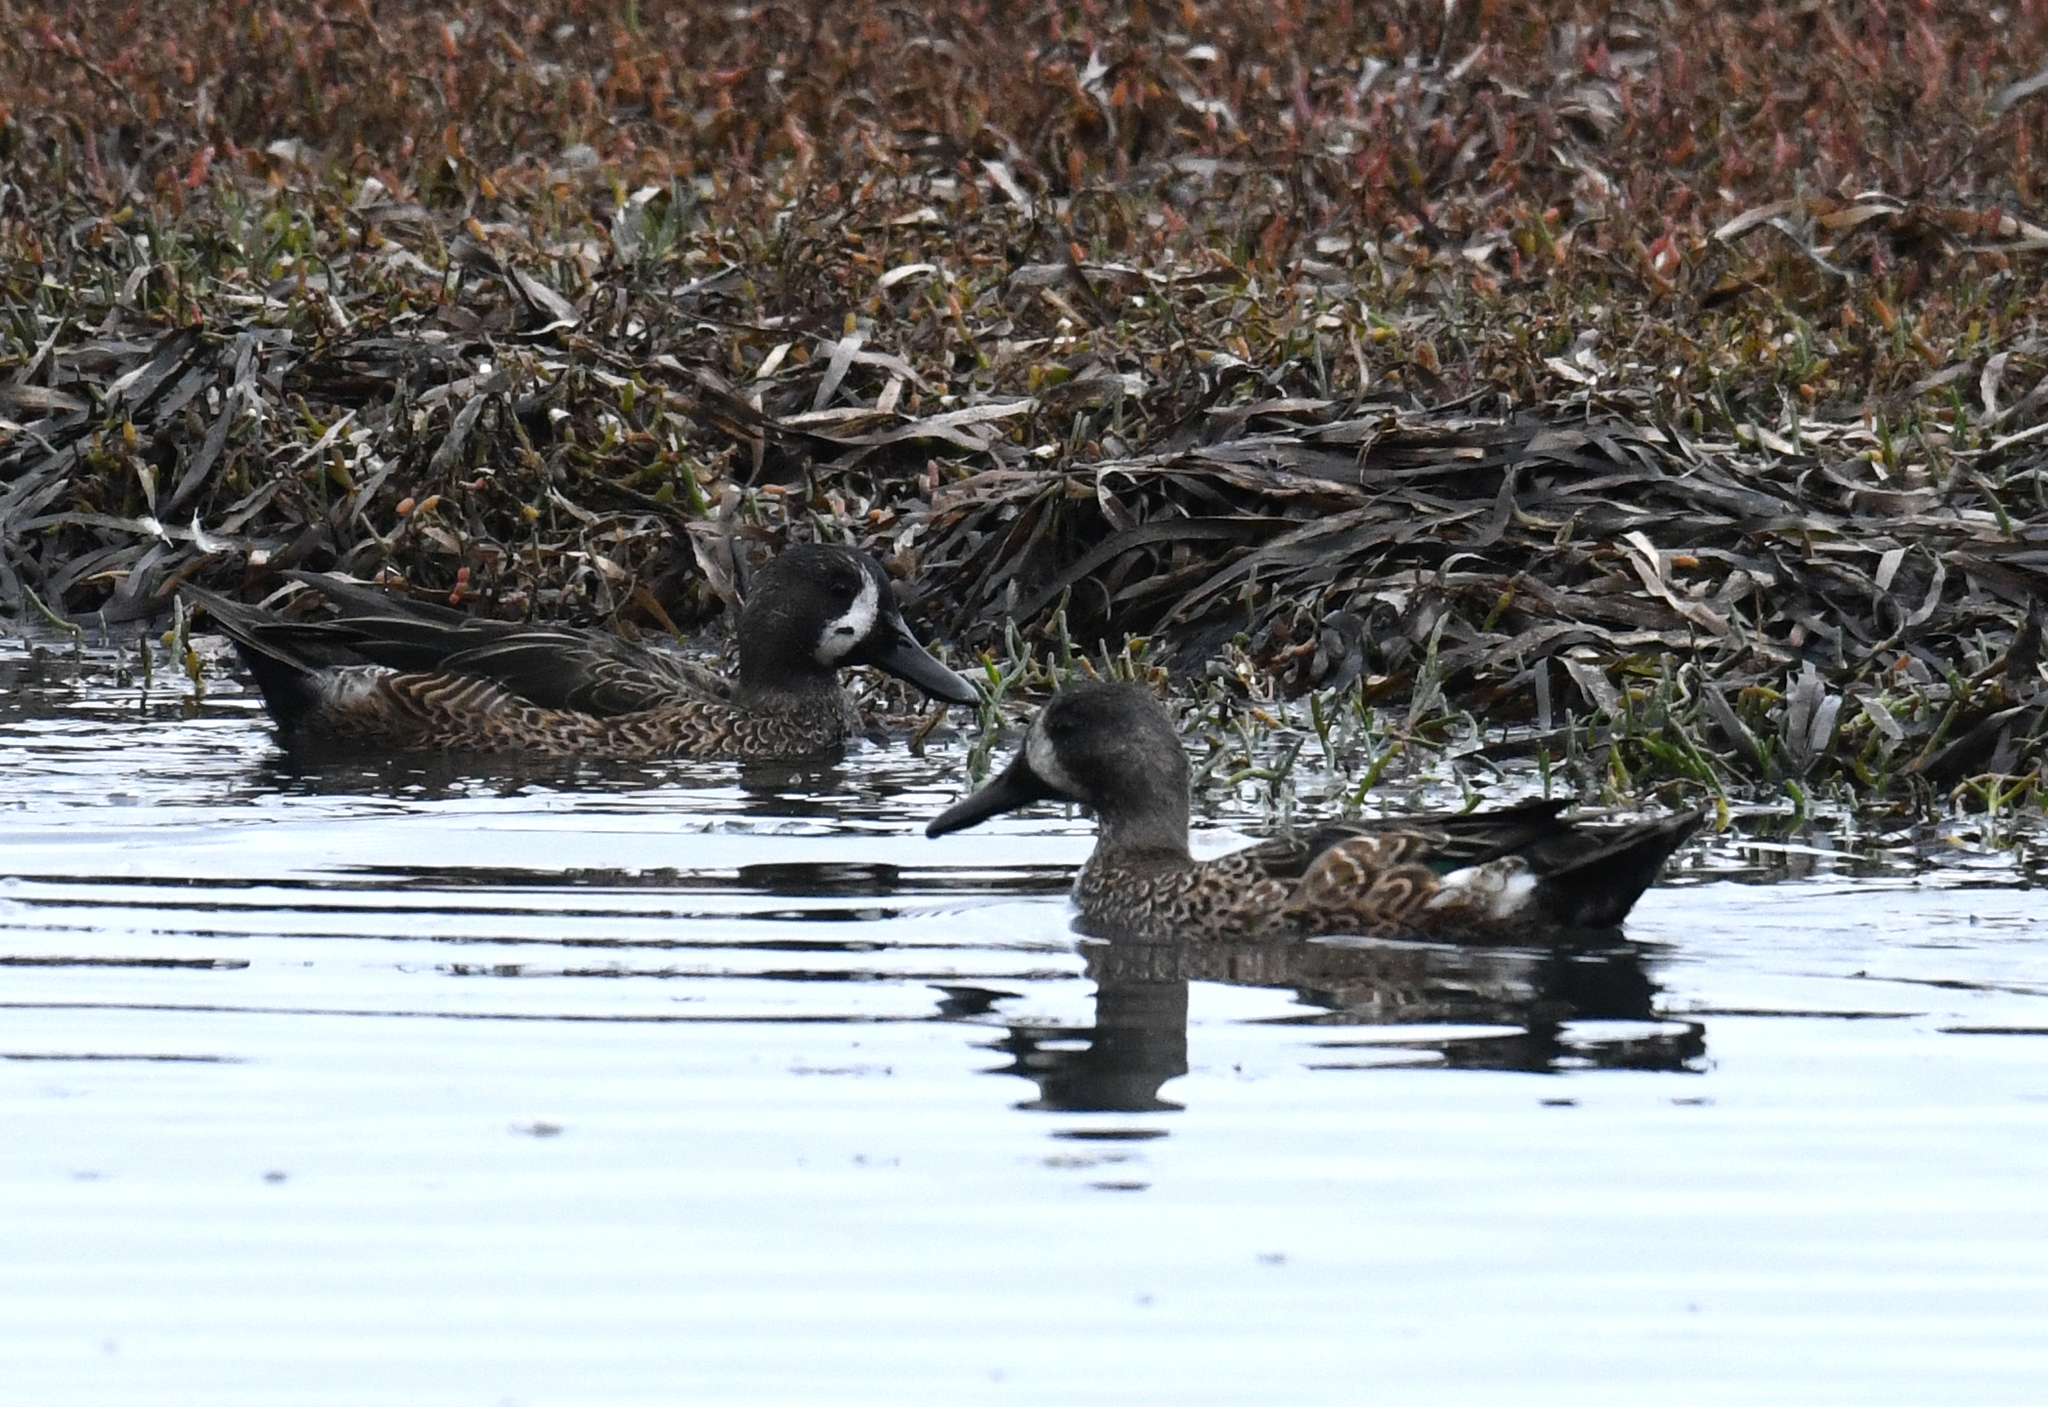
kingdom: Animalia
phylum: Chordata
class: Aves
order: Anseriformes
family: Anatidae
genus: Spatula
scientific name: Spatula discors
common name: Blue-winged teal
